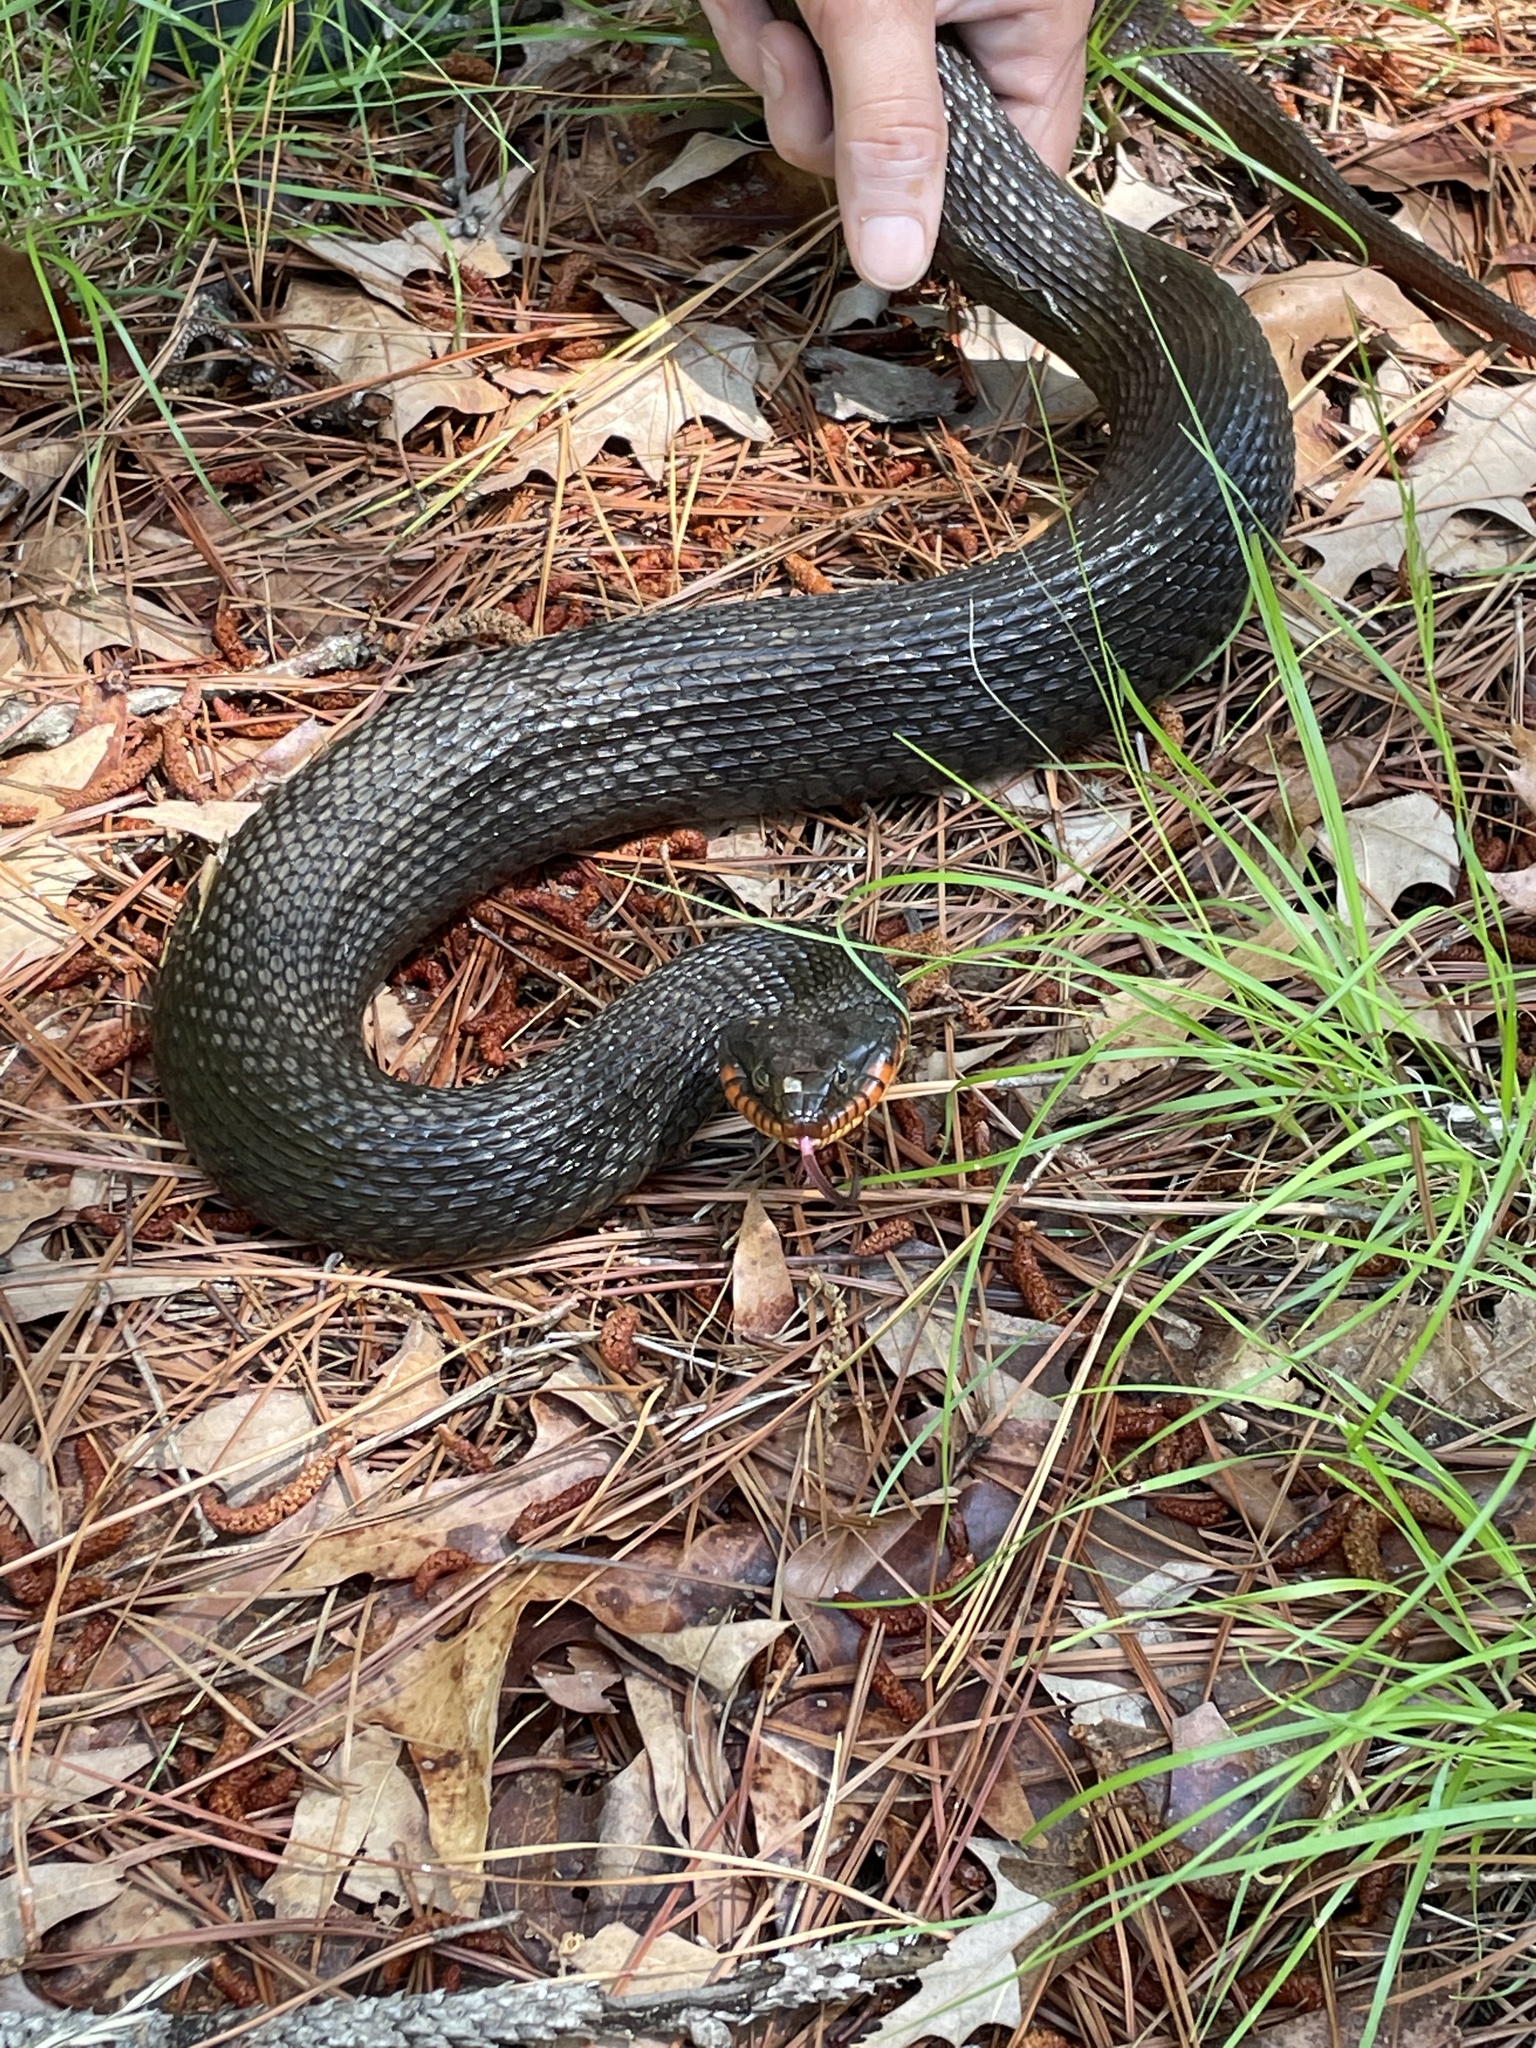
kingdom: Animalia
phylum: Chordata
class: Squamata
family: Colubridae
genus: Nerodia
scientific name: Nerodia erythrogaster
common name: Plainbelly water snake
